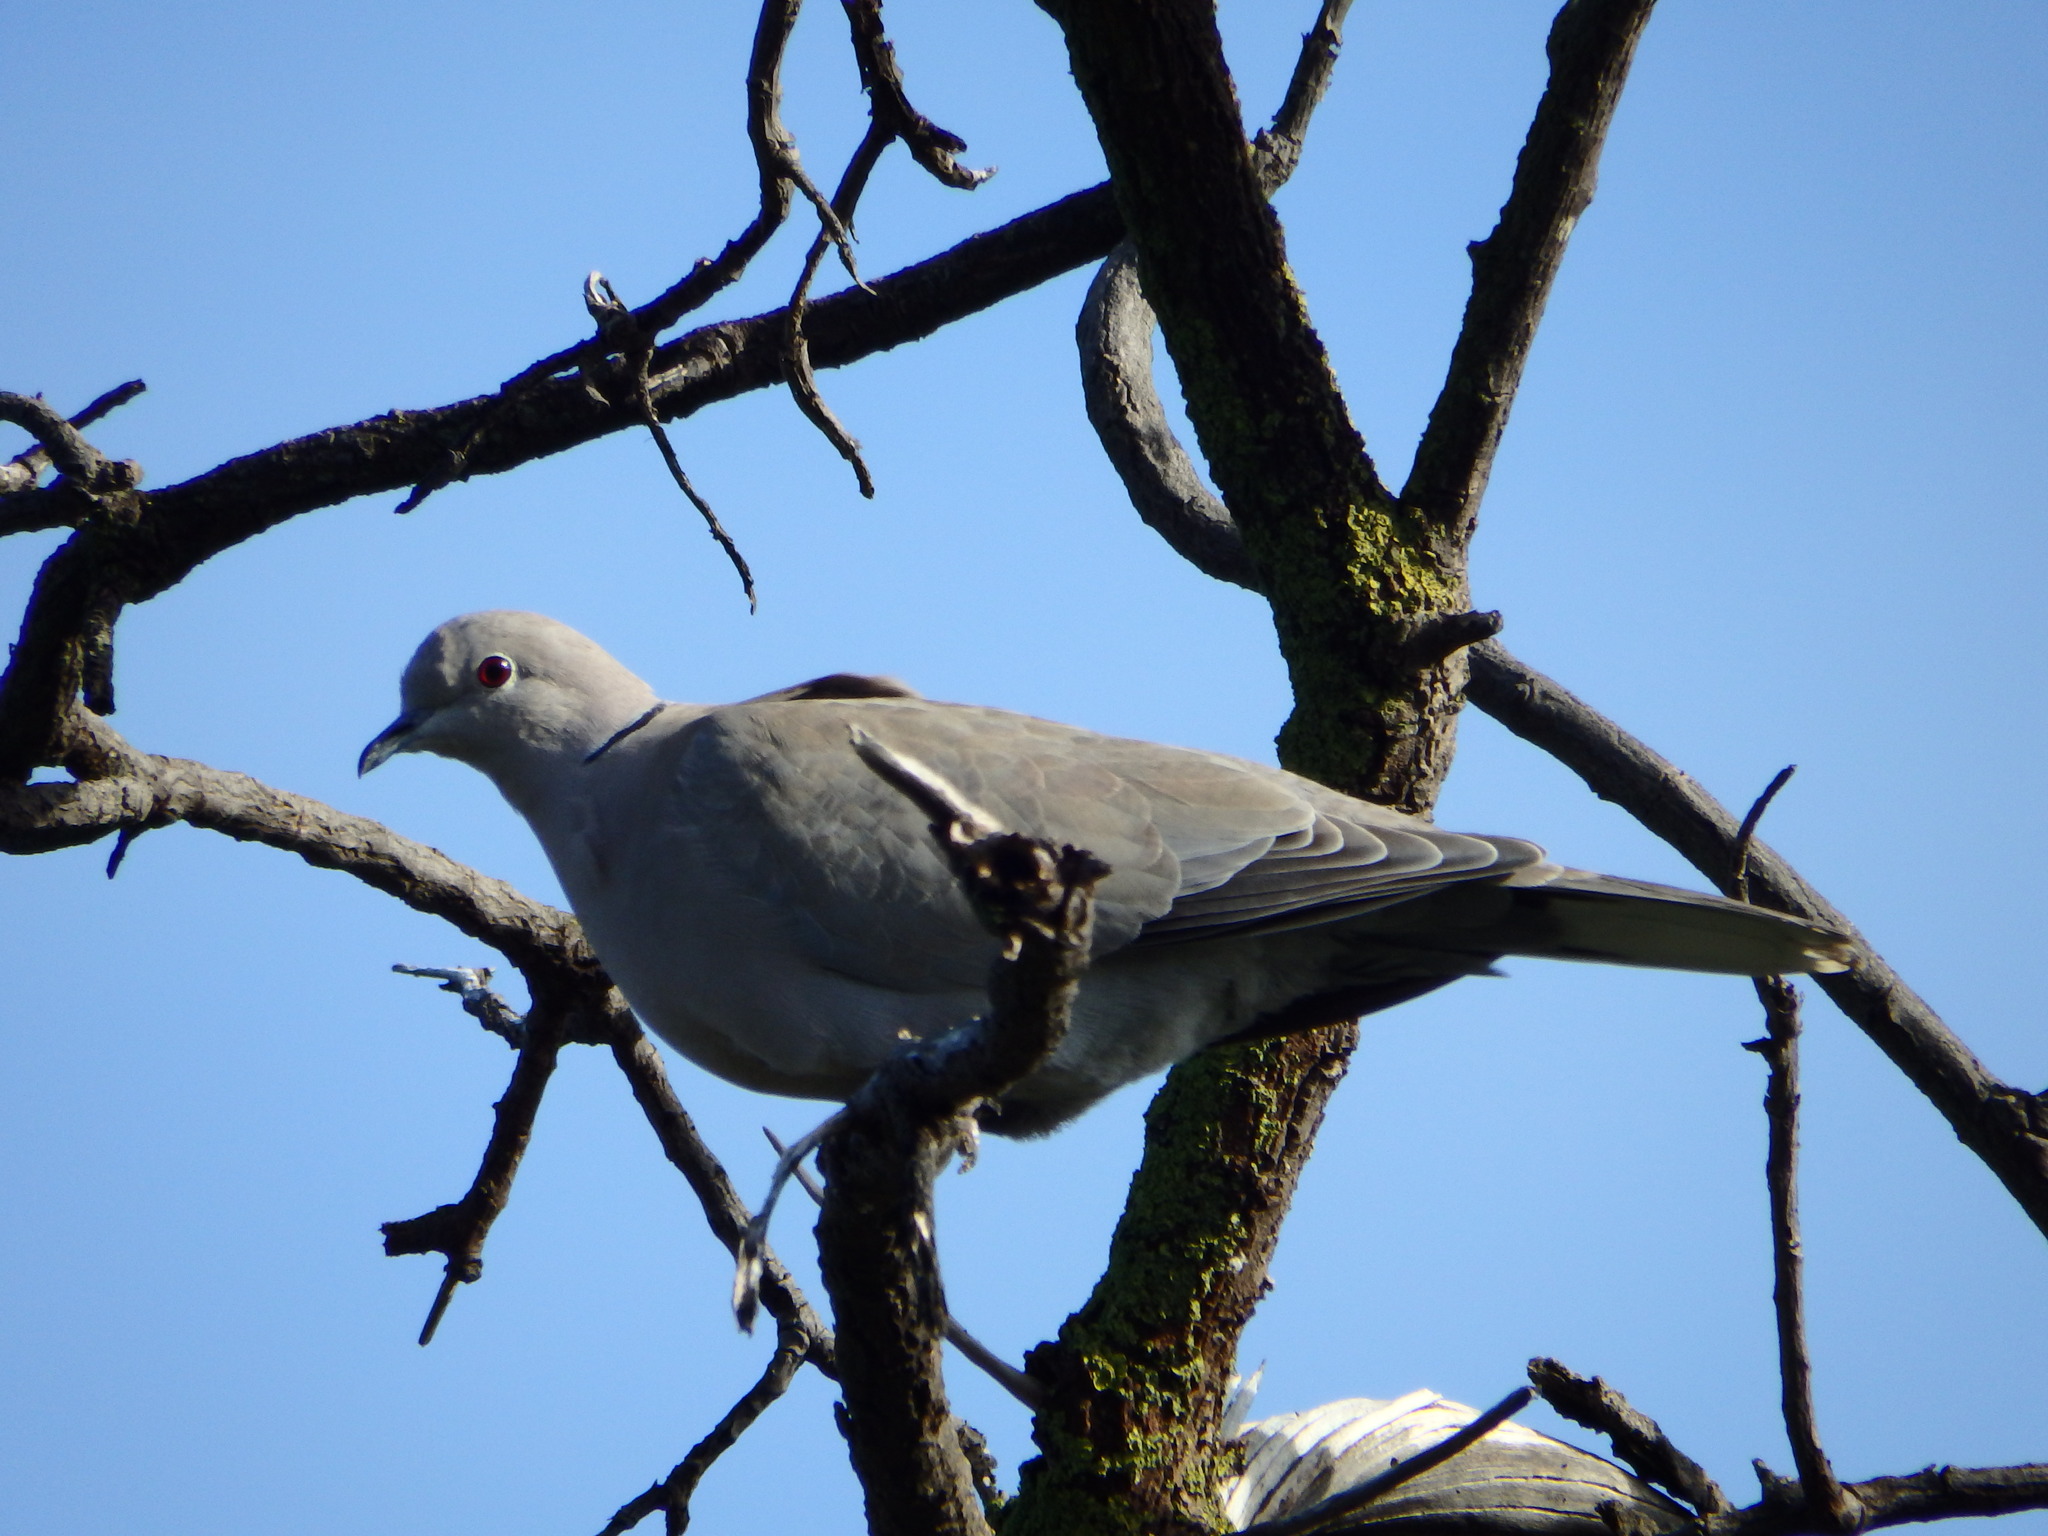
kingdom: Animalia
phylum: Chordata
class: Aves
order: Columbiformes
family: Columbidae
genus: Streptopelia
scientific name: Streptopelia decaocto
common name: Eurasian collared dove
